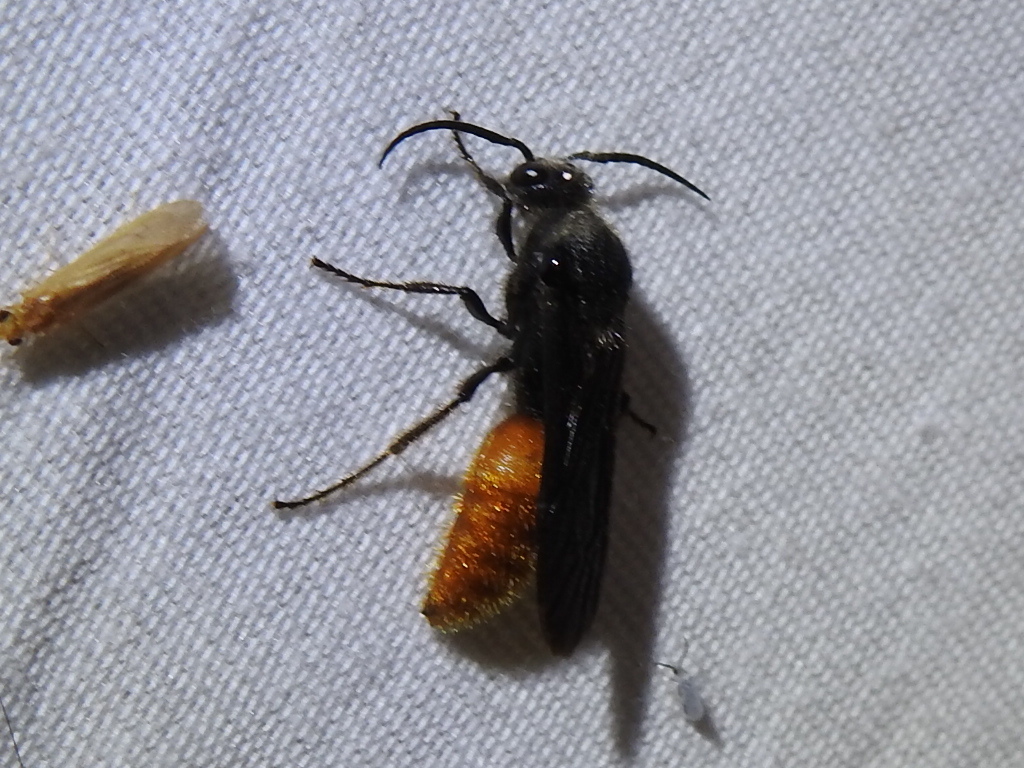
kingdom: Animalia
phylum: Arthropoda
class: Insecta
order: Hymenoptera
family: Mutillidae
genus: Timulla
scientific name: Timulla
